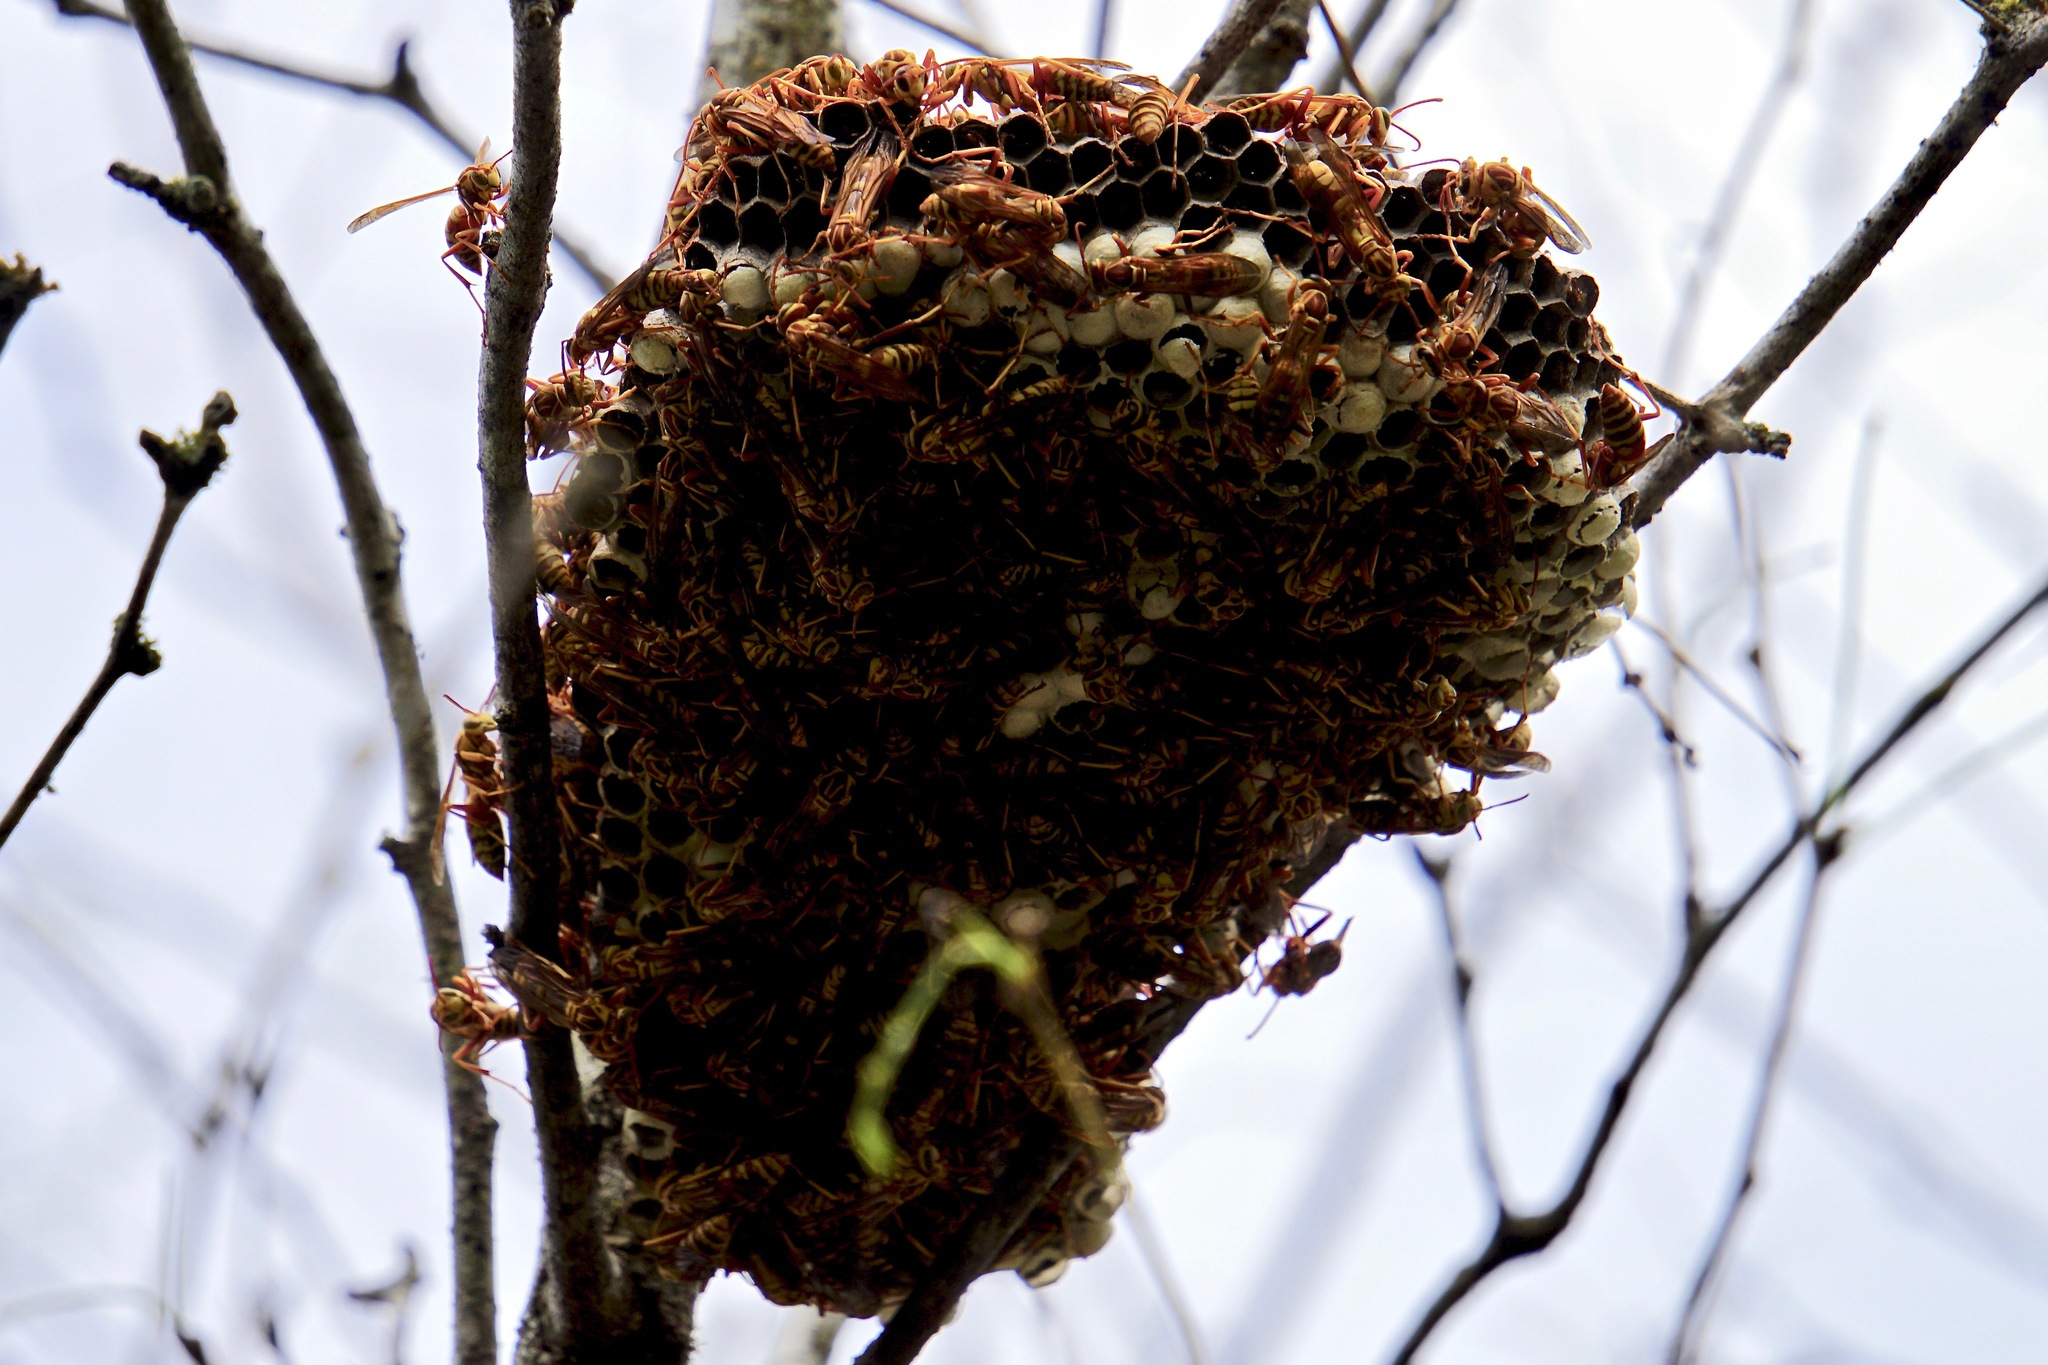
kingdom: Animalia
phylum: Arthropoda
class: Insecta
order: Hymenoptera
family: Eumenidae
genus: Polistes
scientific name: Polistes apachus
